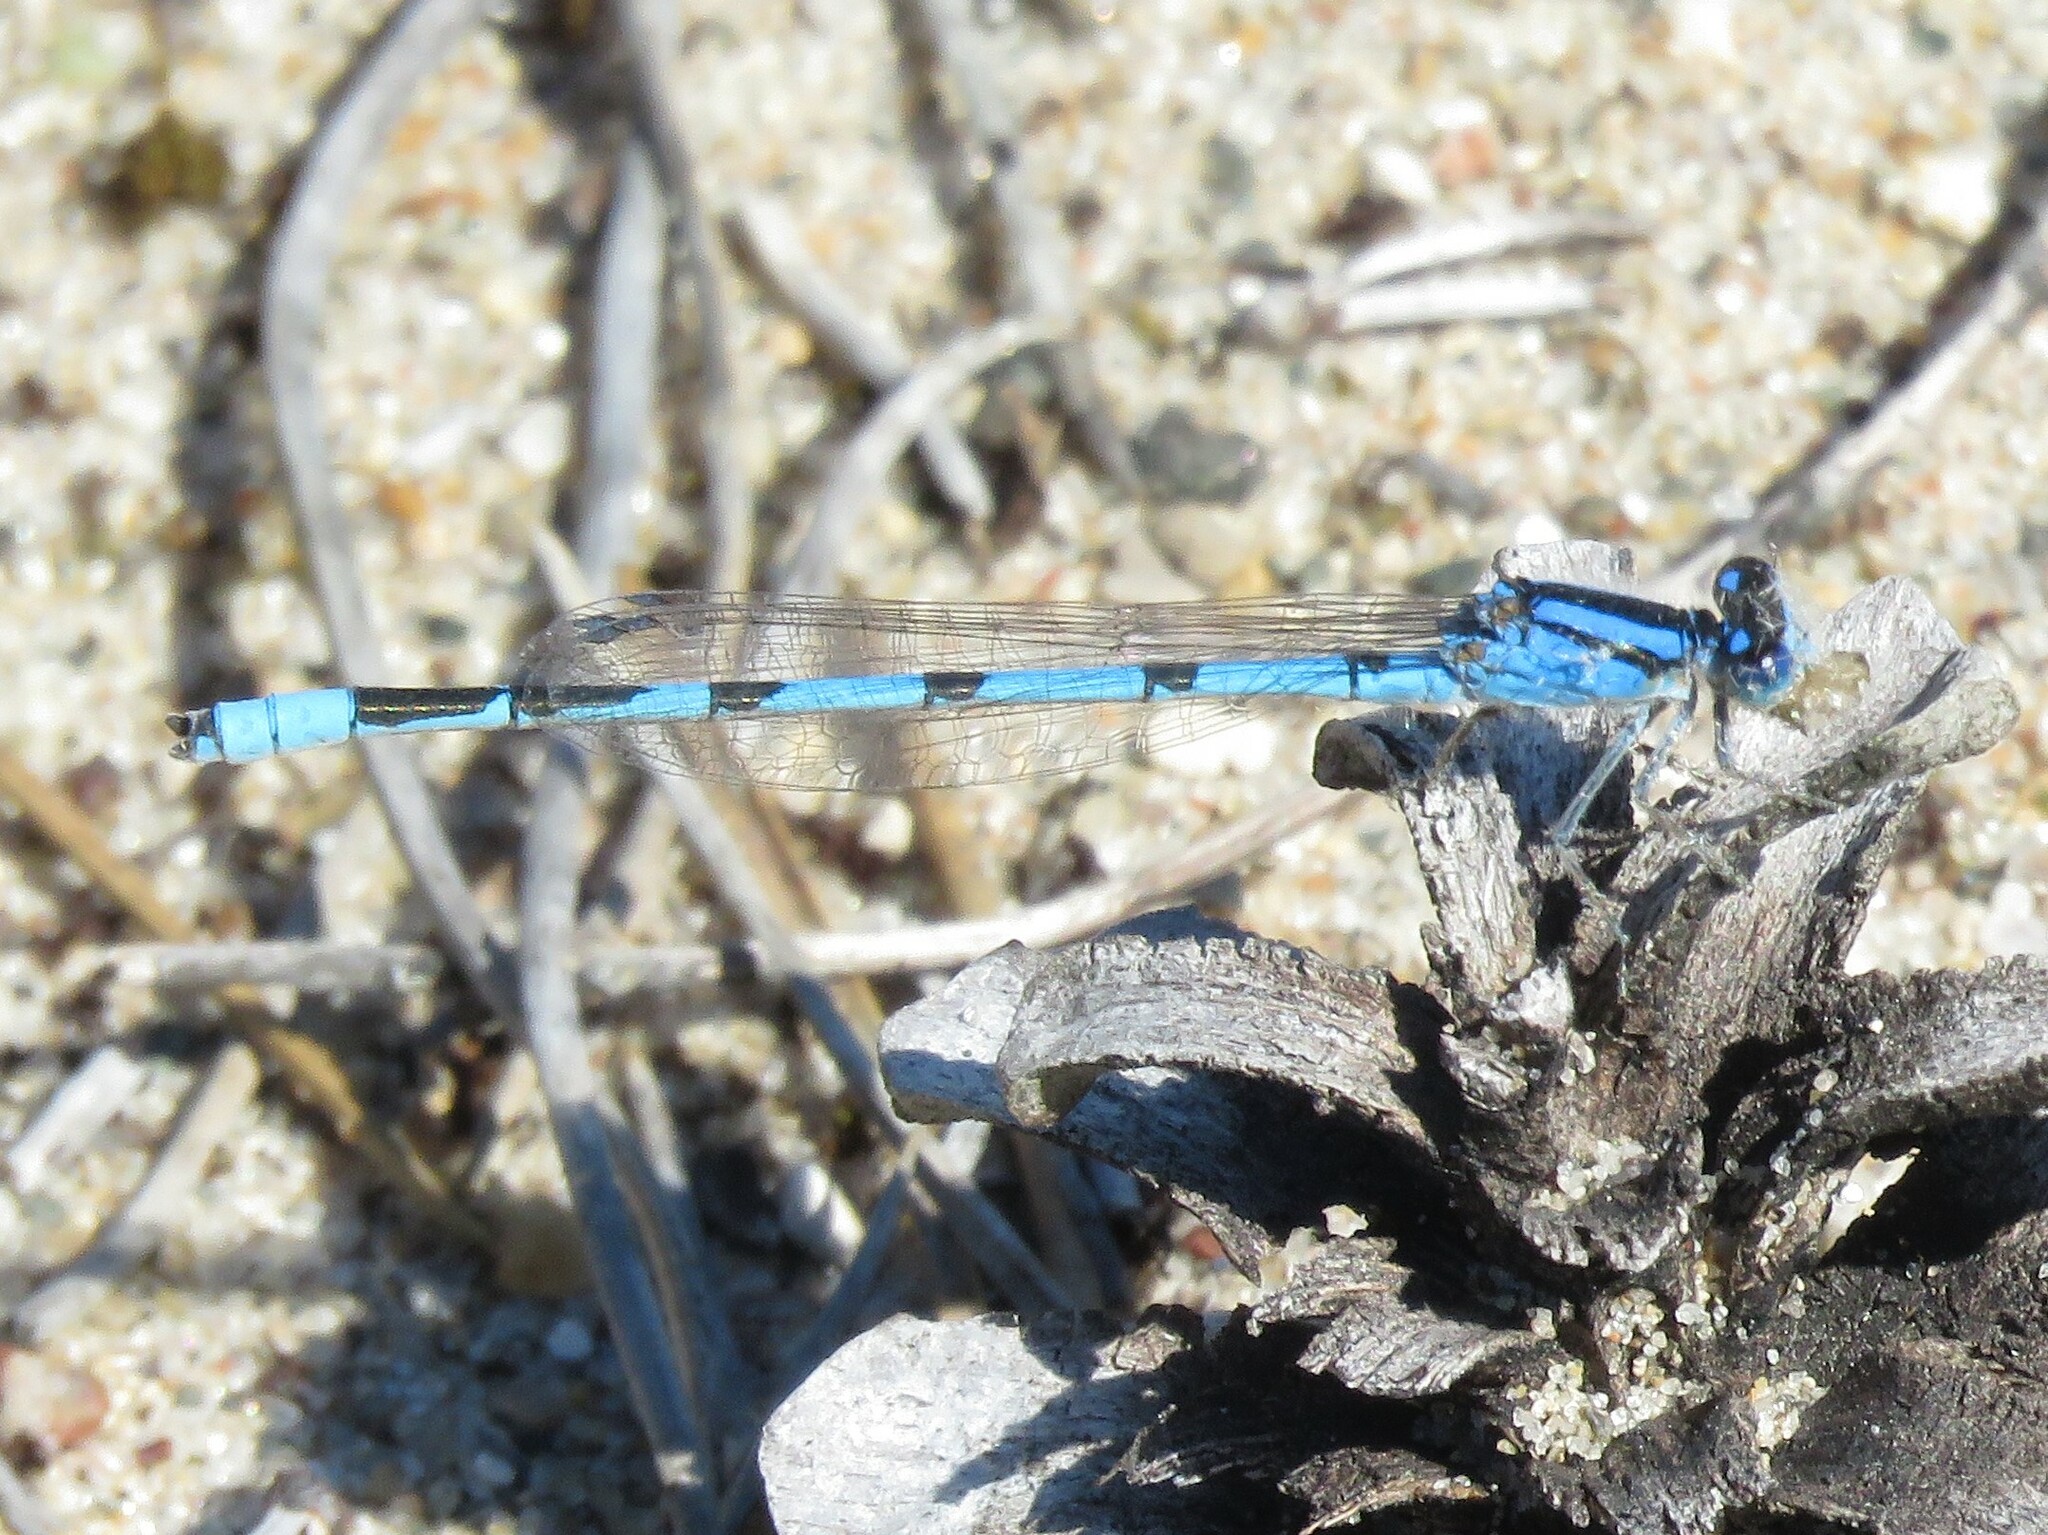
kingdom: Animalia
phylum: Arthropoda
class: Insecta
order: Odonata
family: Coenagrionidae
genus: Enallagma
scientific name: Enallagma civile
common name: Damselfly
